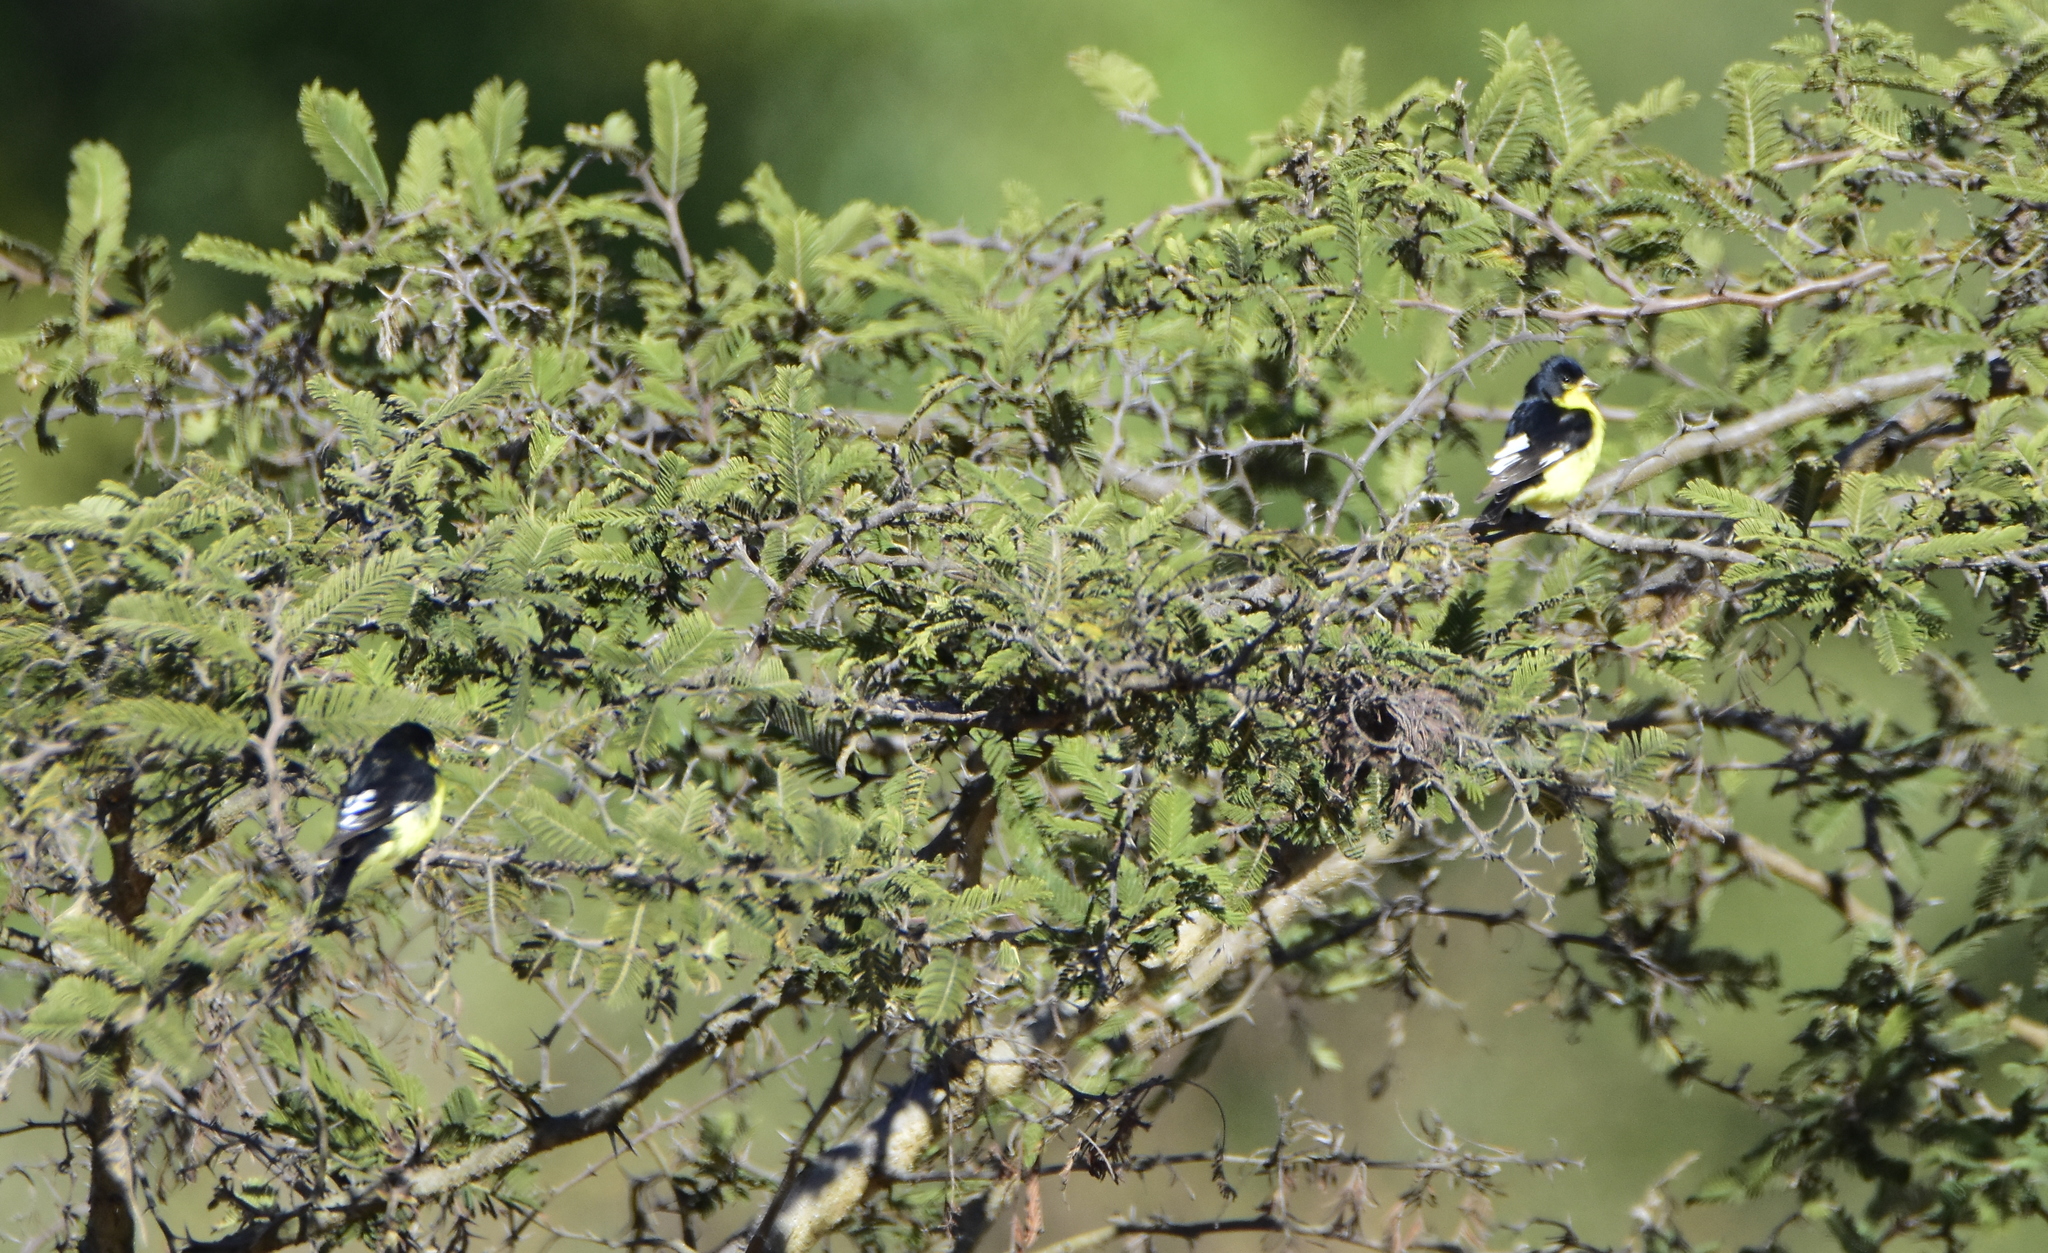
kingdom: Animalia
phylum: Chordata
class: Aves
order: Passeriformes
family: Fringillidae
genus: Spinus
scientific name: Spinus psaltria
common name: Lesser goldfinch
